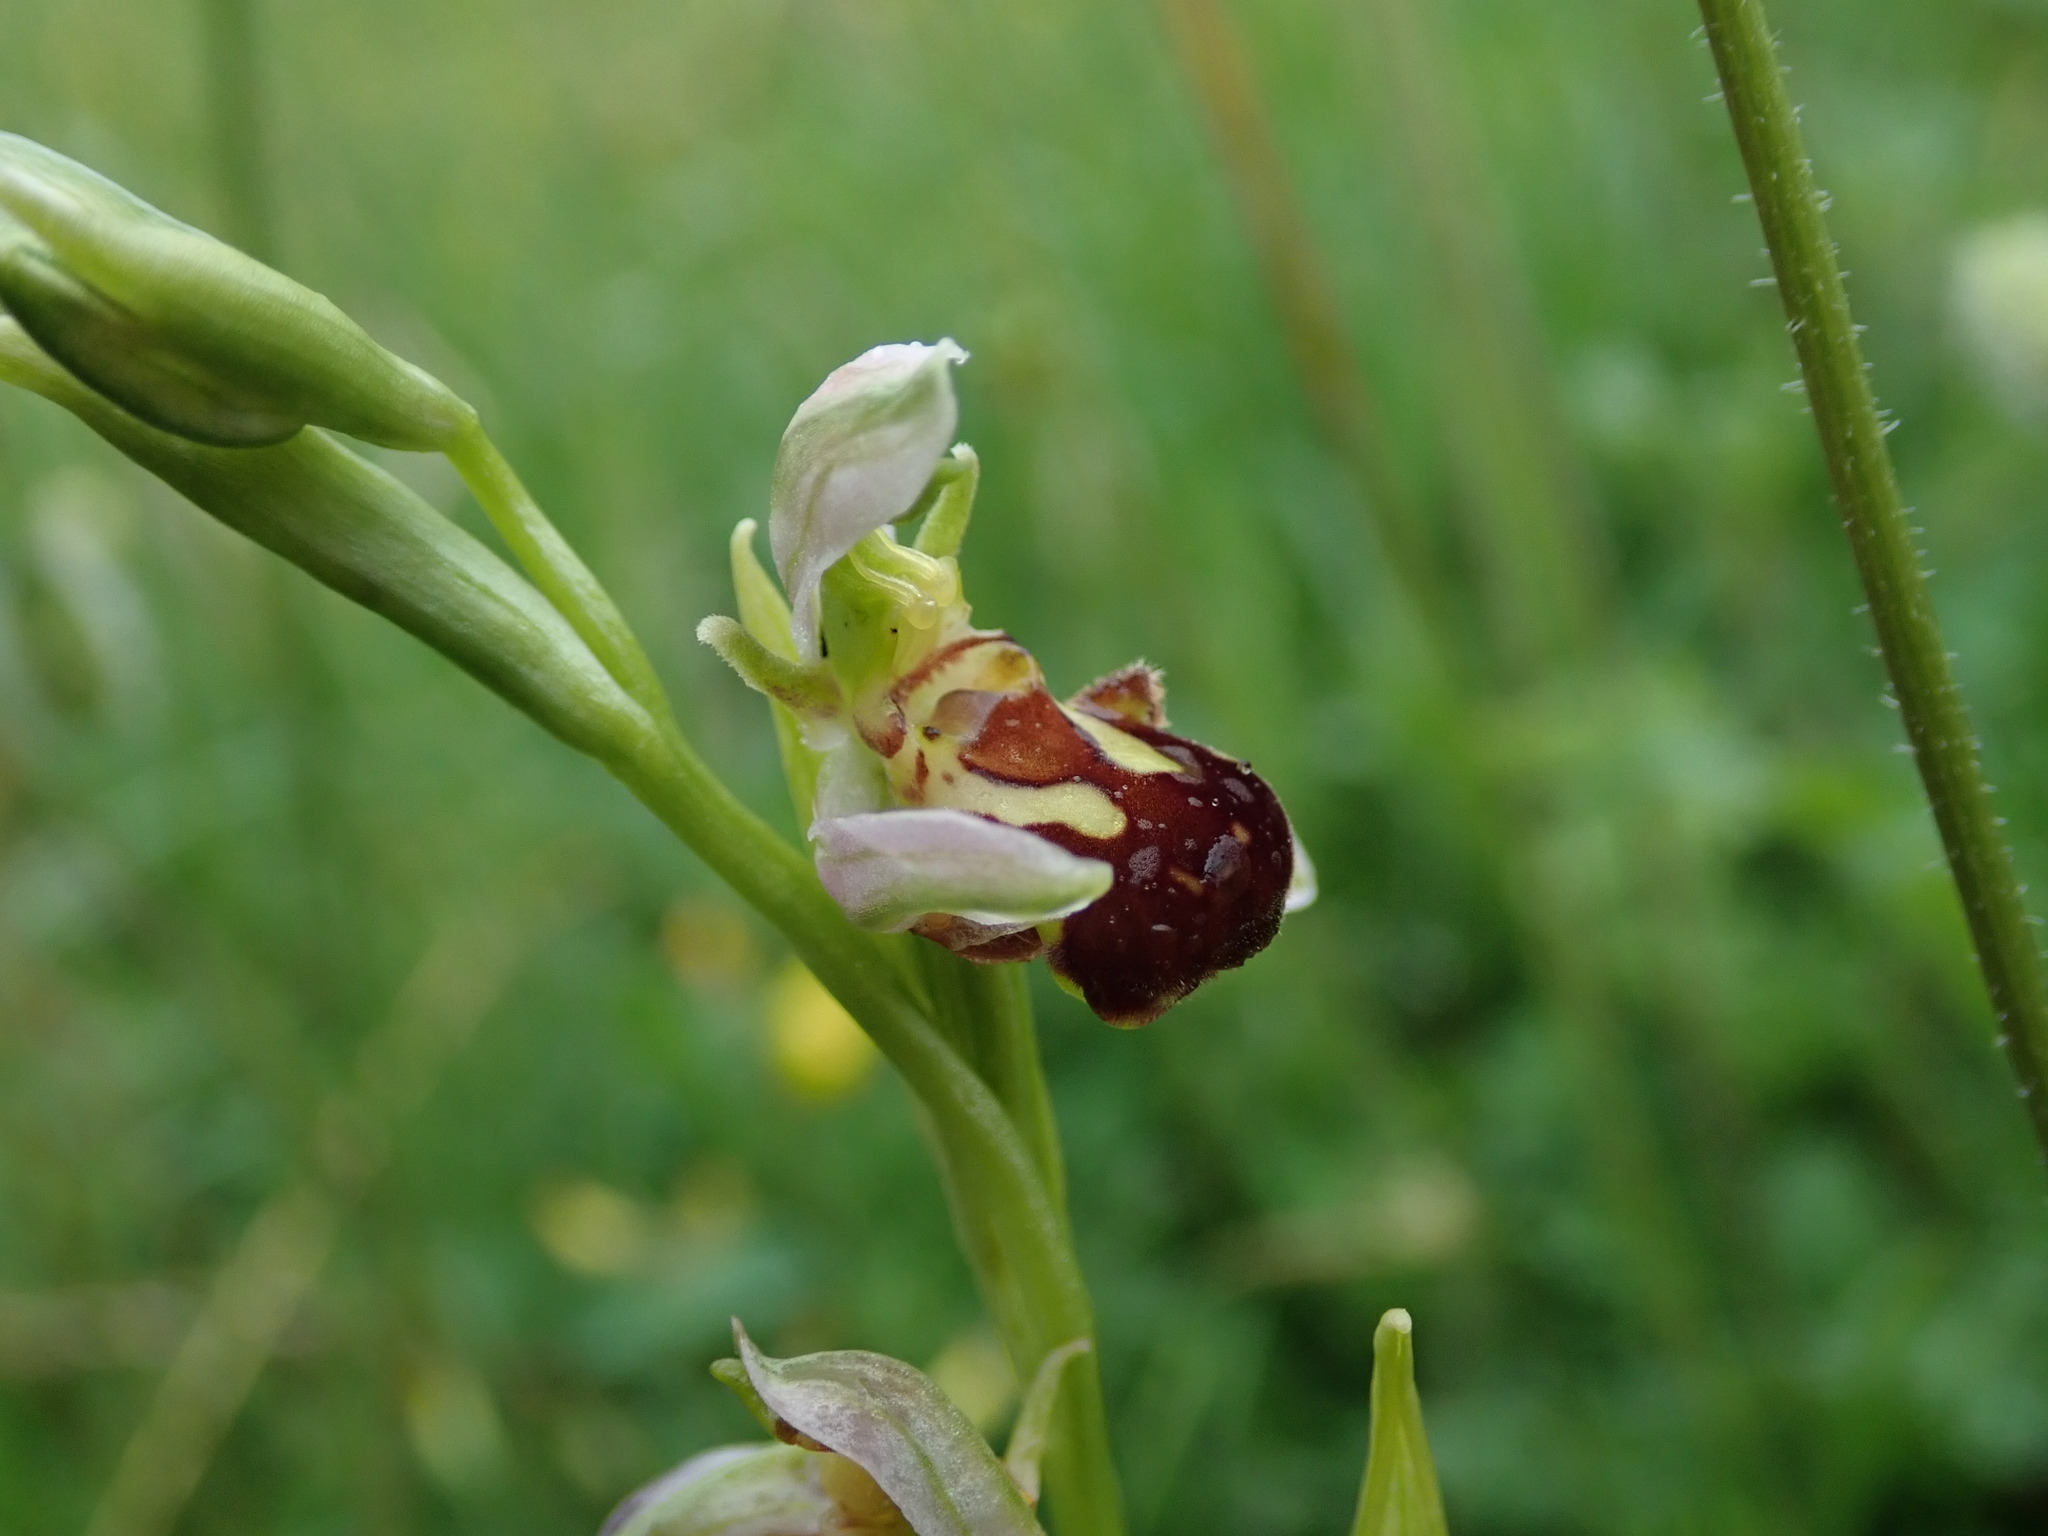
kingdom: Plantae
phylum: Tracheophyta
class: Liliopsida
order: Asparagales
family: Orchidaceae
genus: Ophrys
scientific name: Ophrys apifera
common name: Bee orchid
